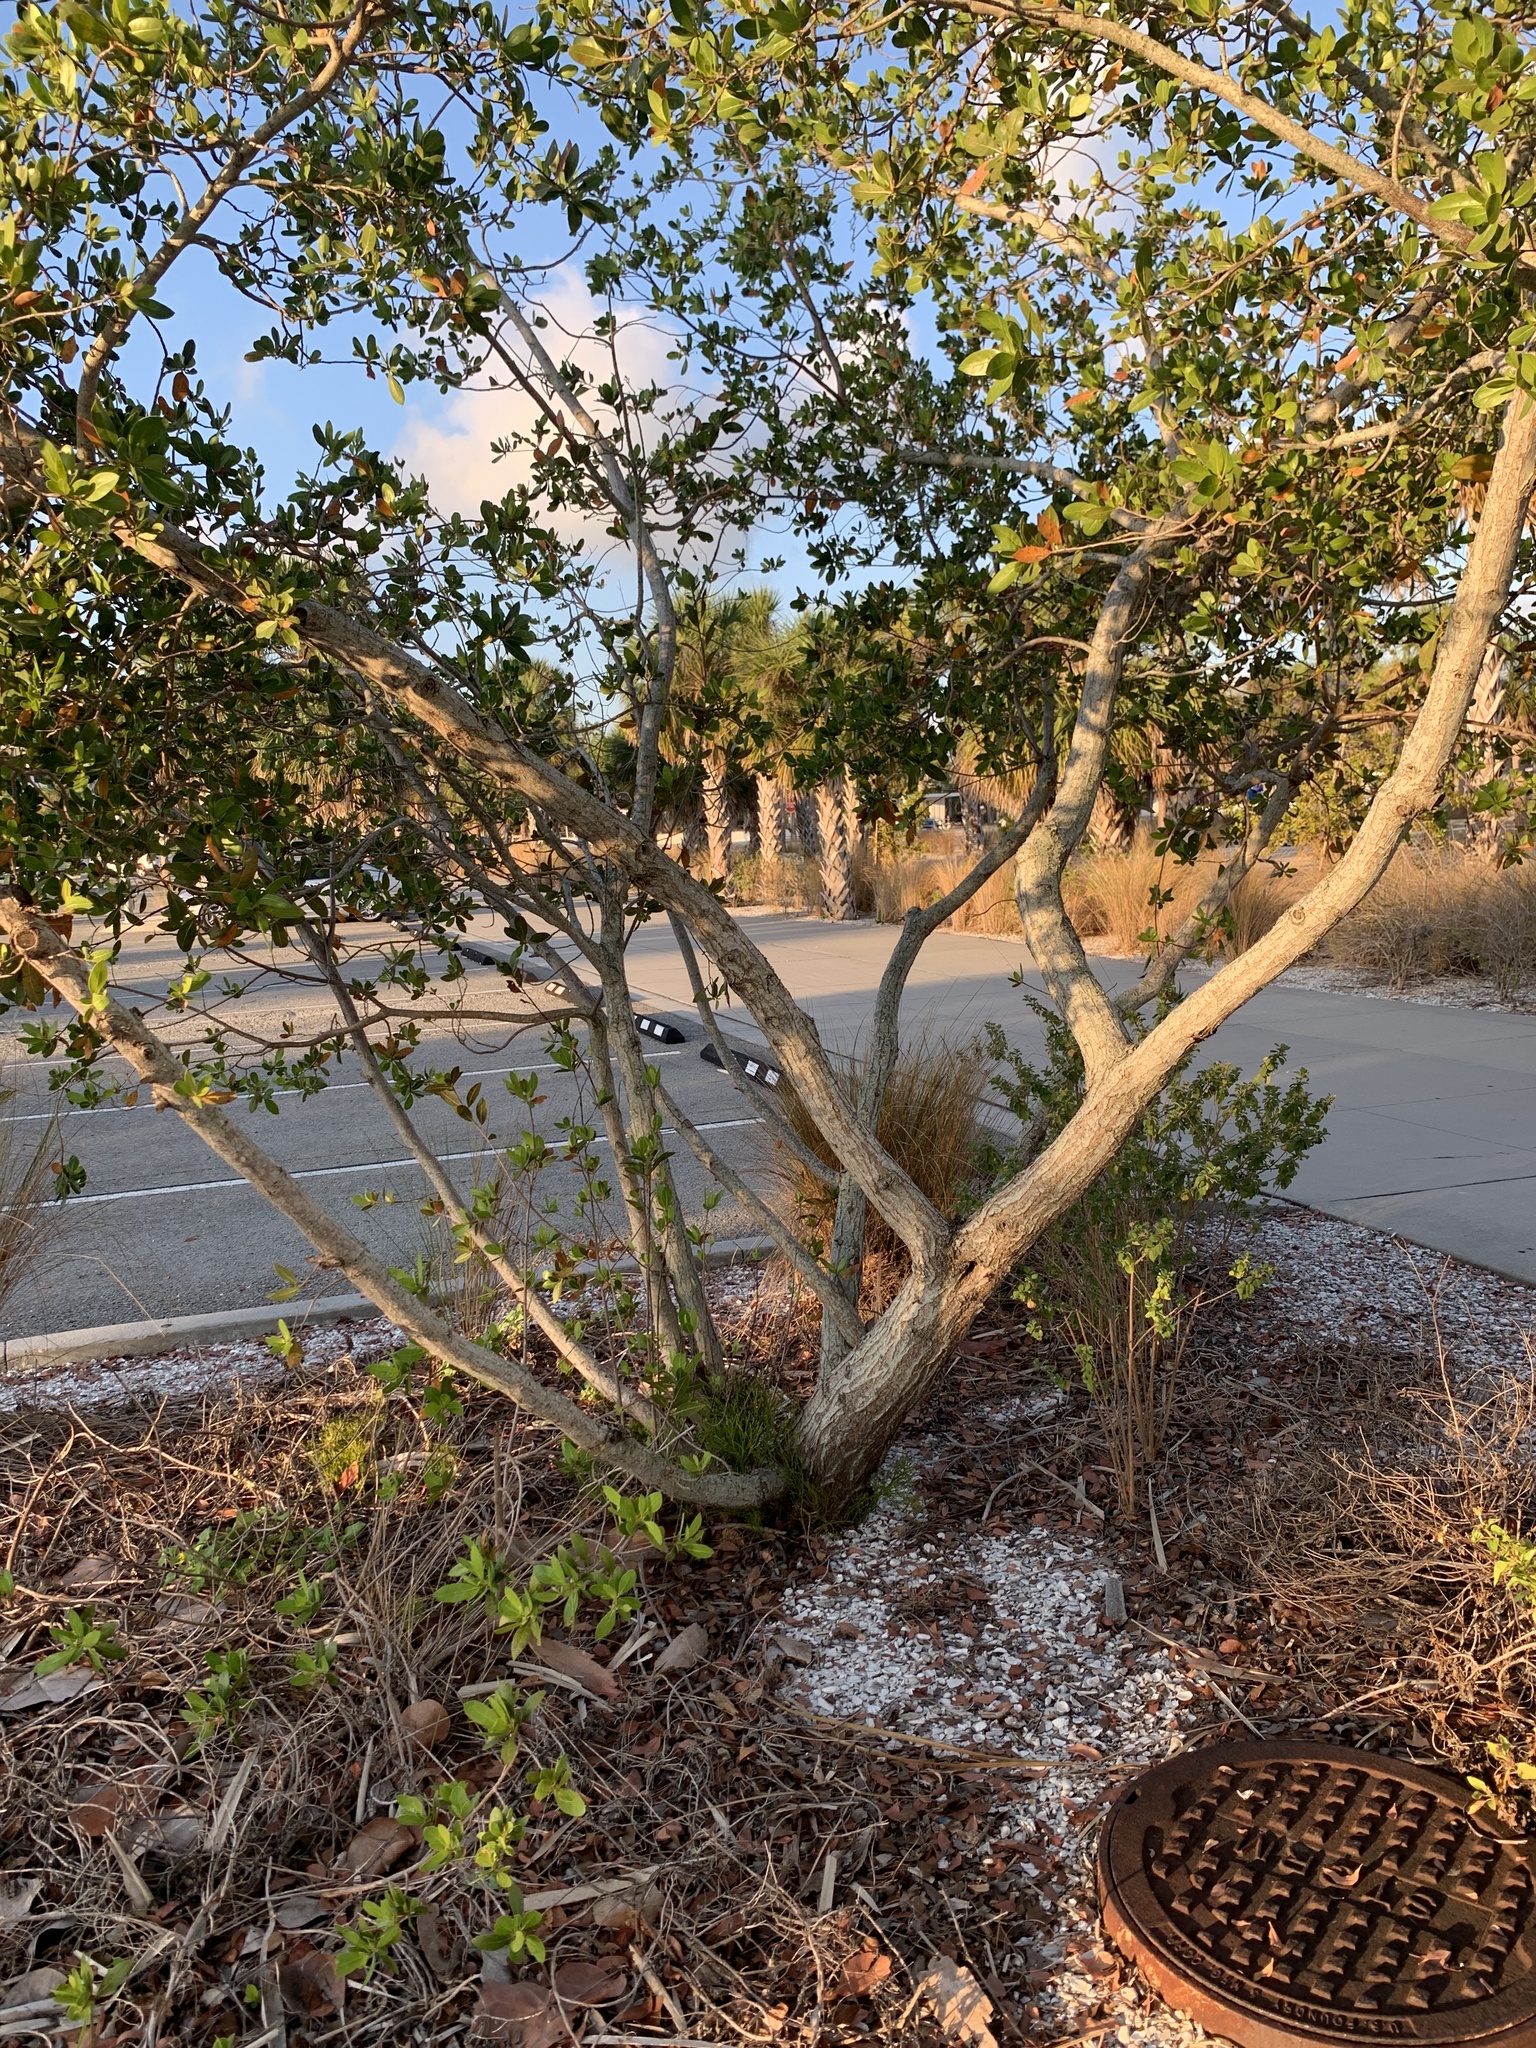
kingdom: Plantae
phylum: Tracheophyta
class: Polypodiopsida
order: Psilotales
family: Psilotaceae
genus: Psilotum
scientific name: Psilotum nudum
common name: Skeleton fork fern
